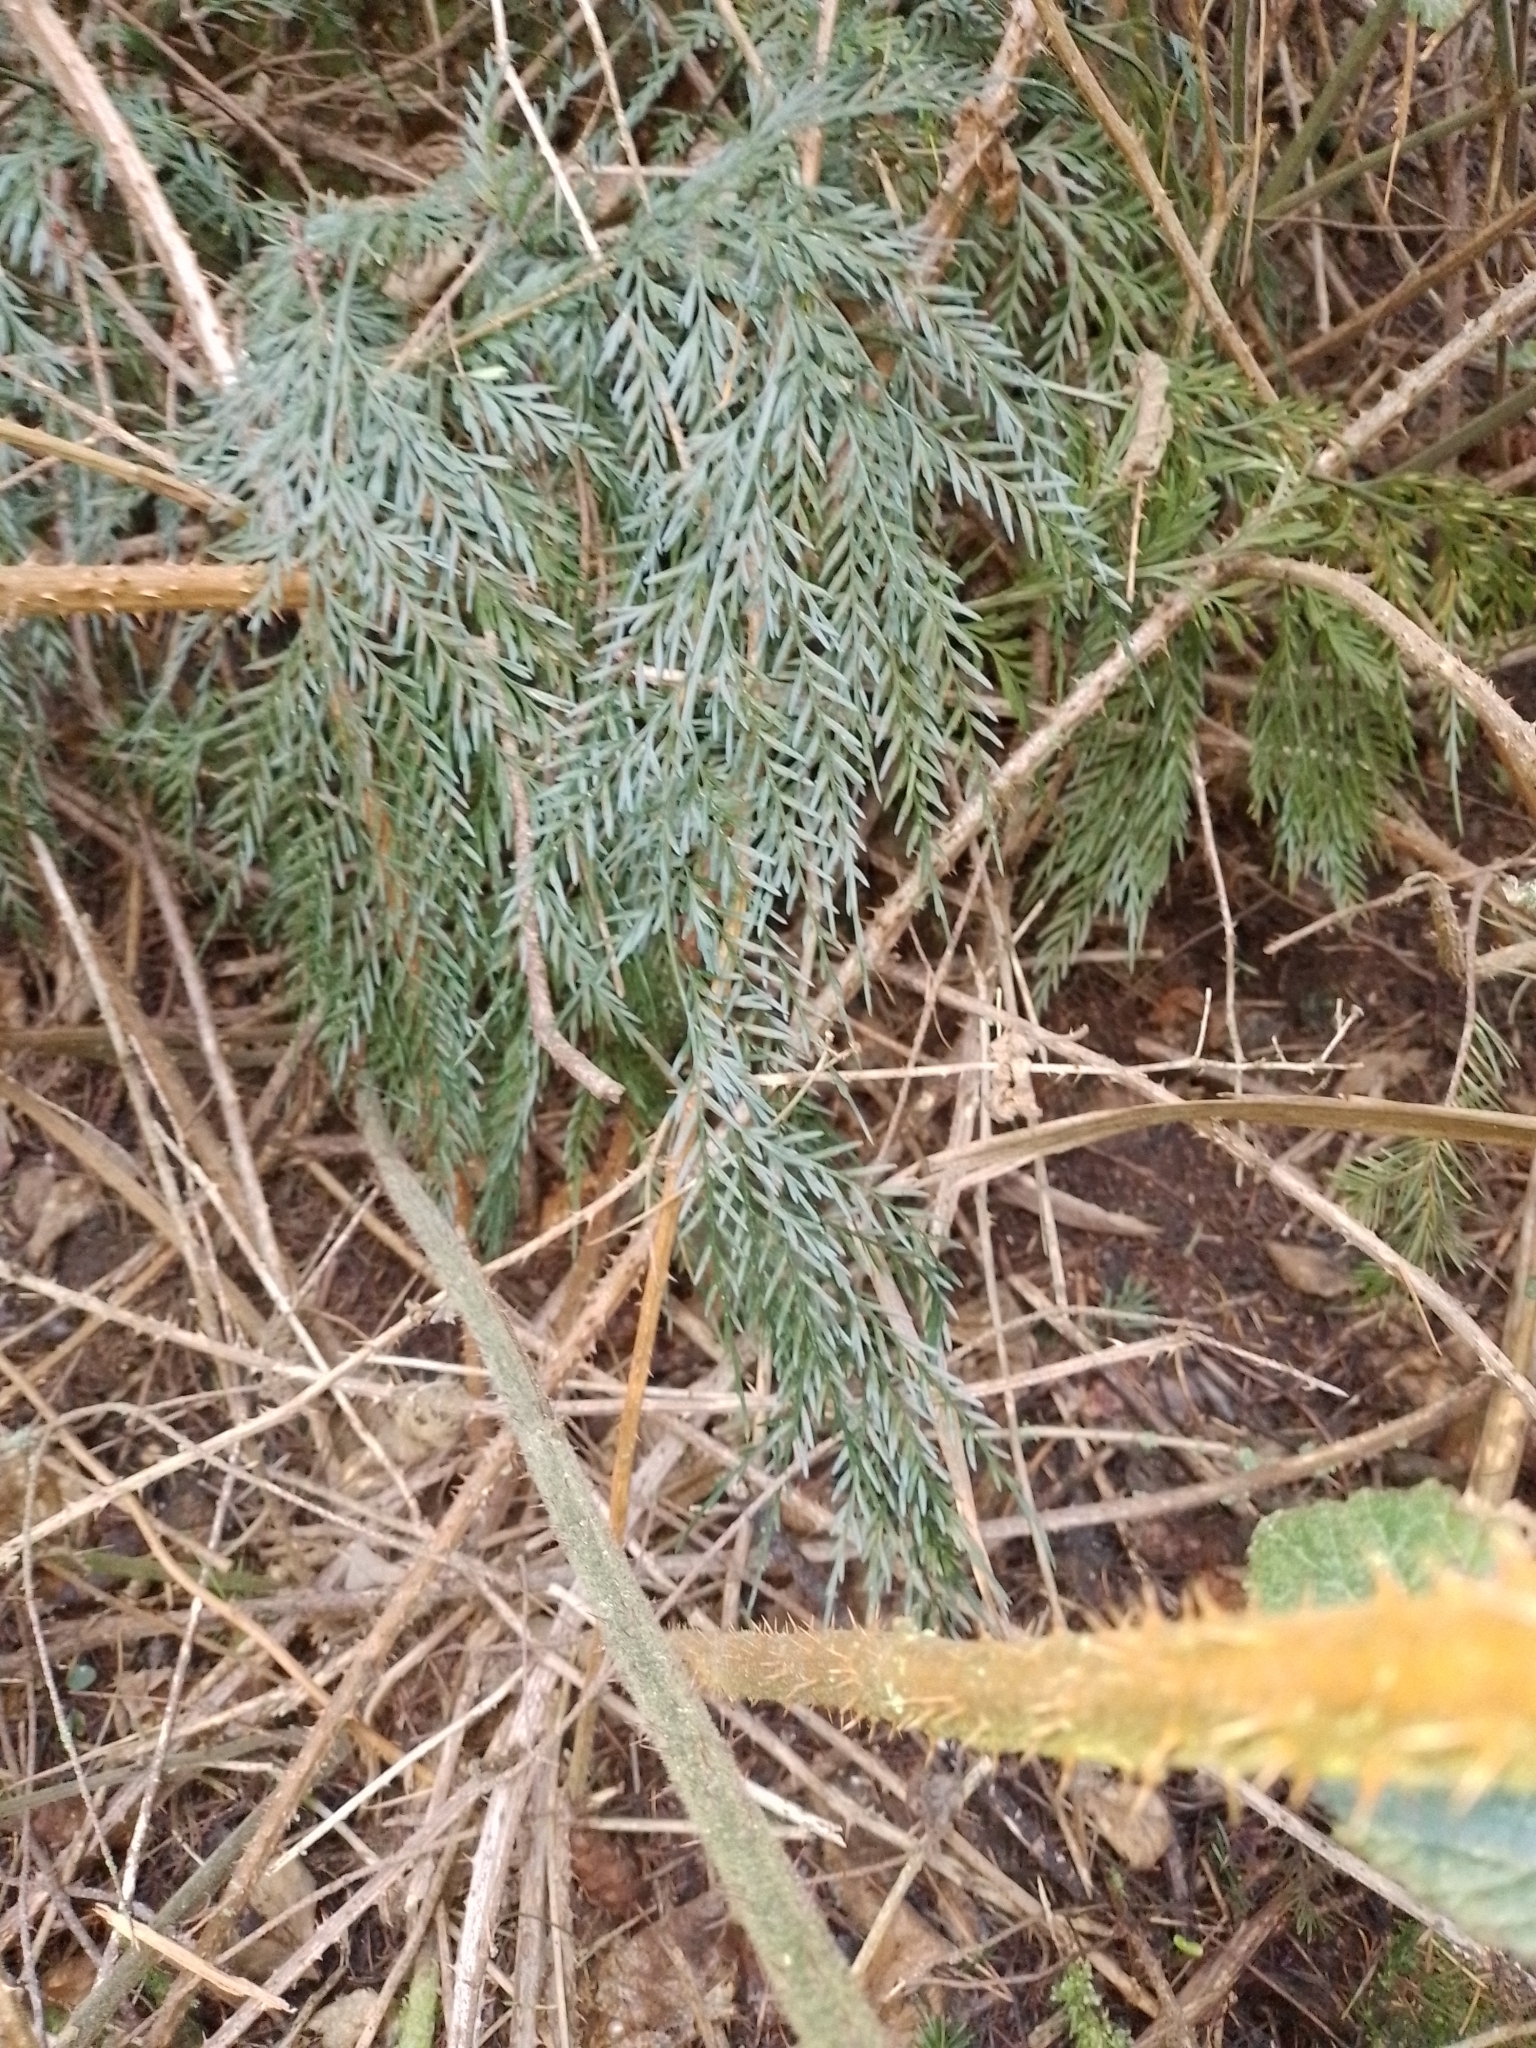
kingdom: Plantae
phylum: Tracheophyta
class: Polypodiopsida
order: Polypodiales
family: Aspleniaceae
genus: Asplenium
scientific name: Asplenium flaccidum
